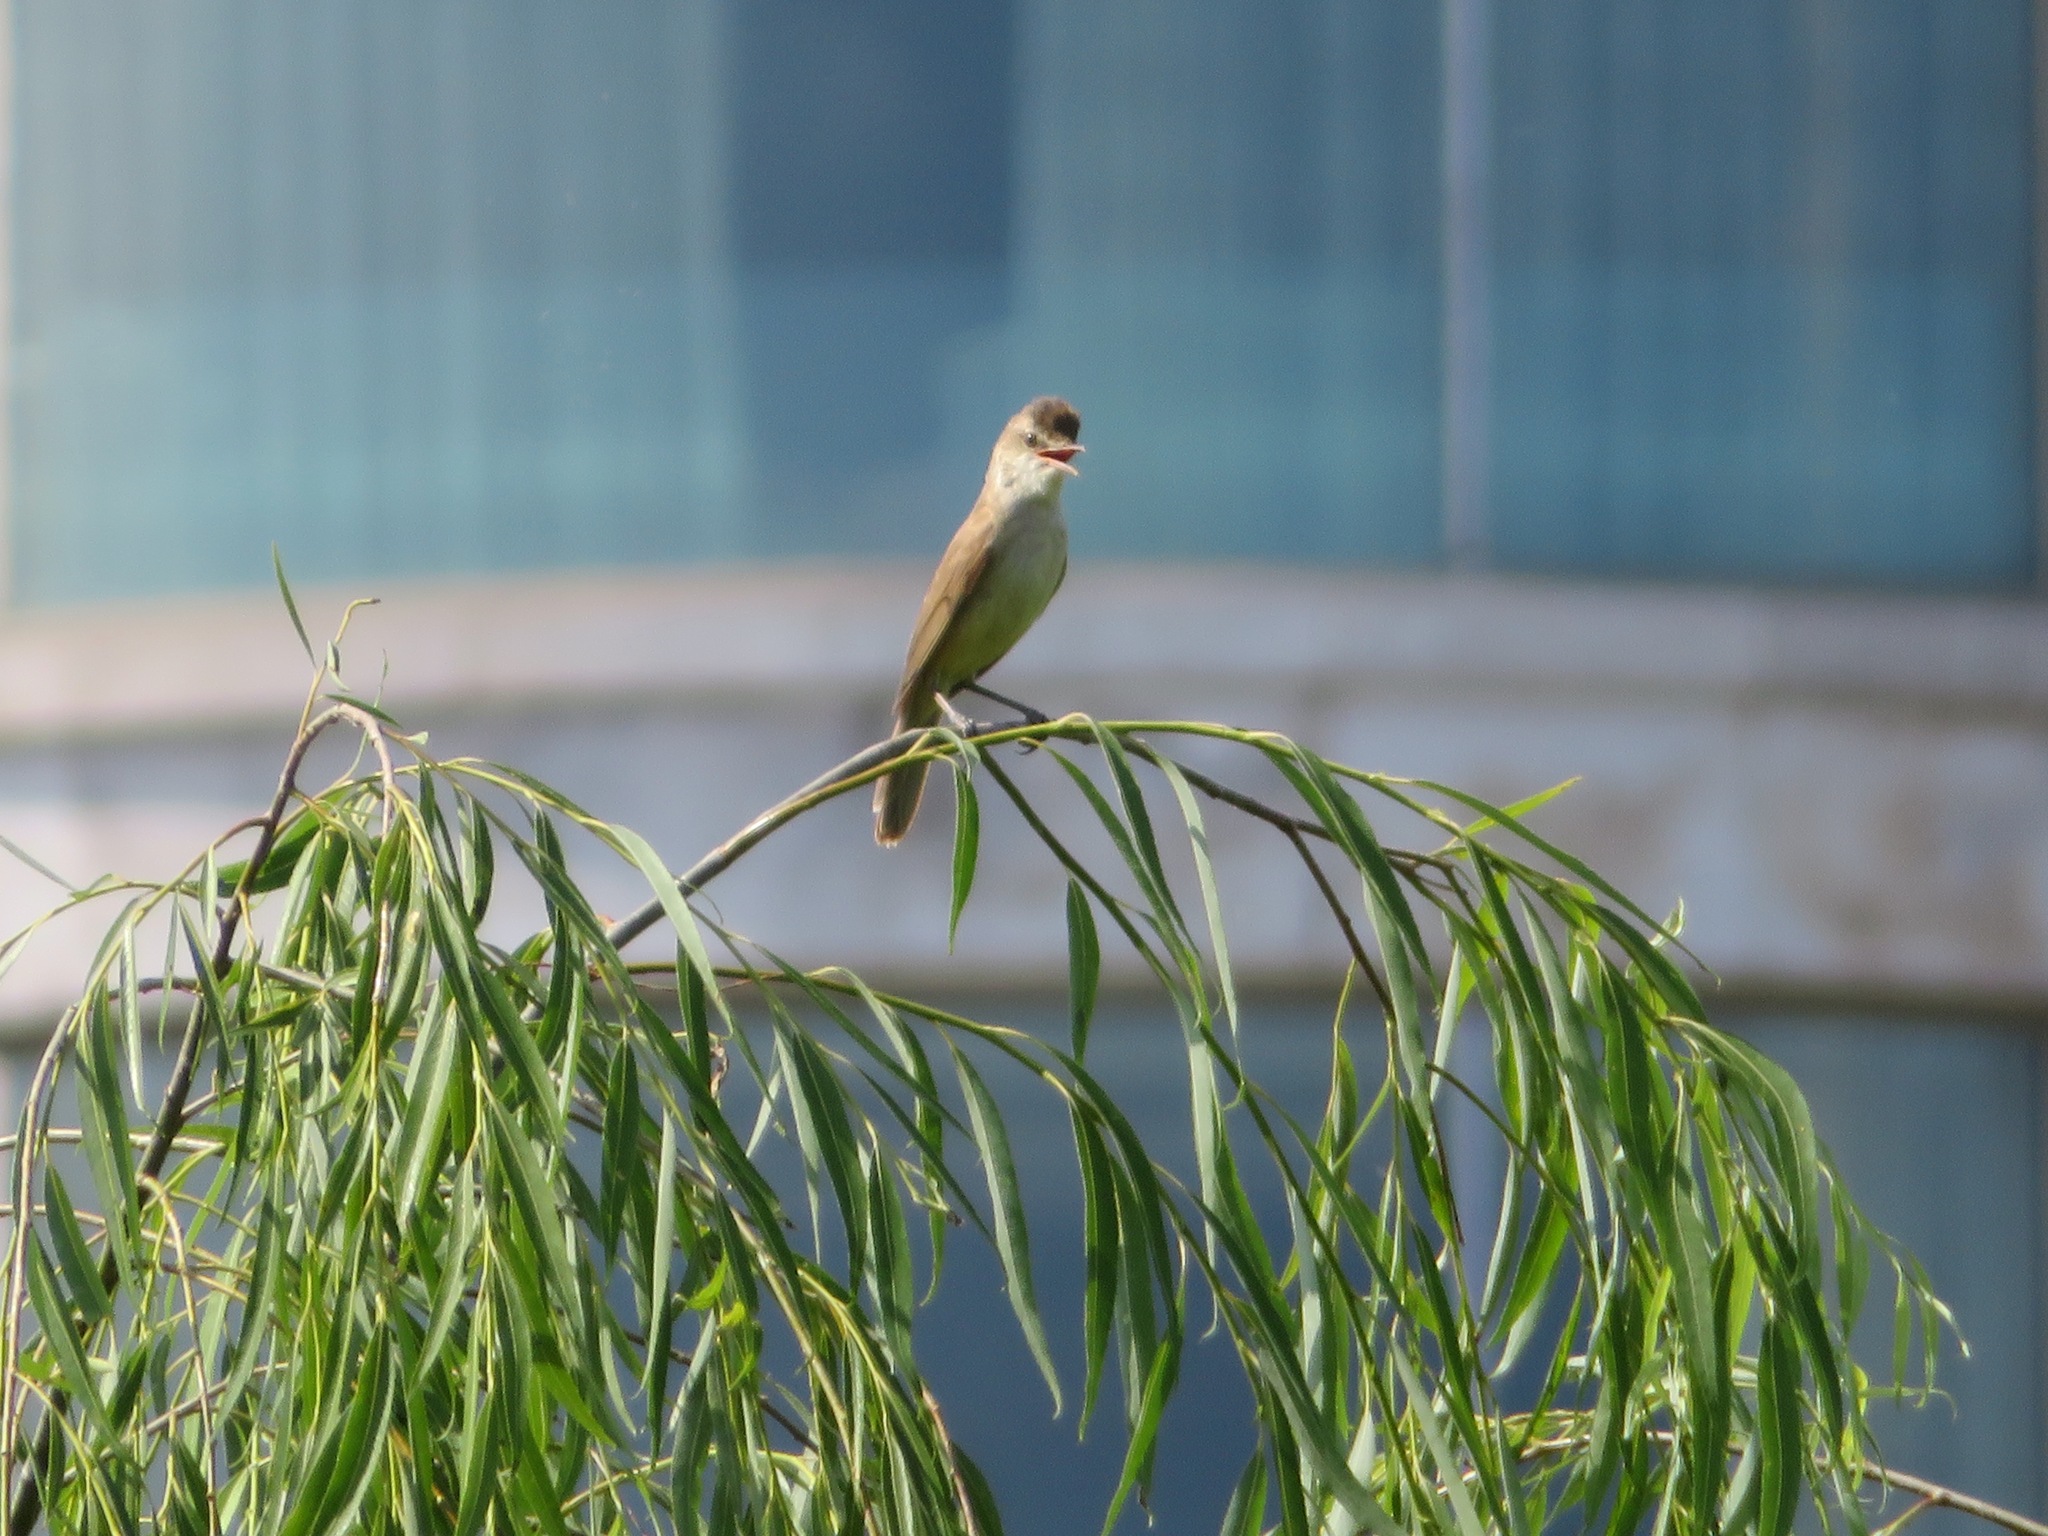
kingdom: Animalia
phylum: Chordata
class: Aves
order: Passeriformes
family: Acrocephalidae
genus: Acrocephalus
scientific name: Acrocephalus orientalis
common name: Oriental reed warbler
